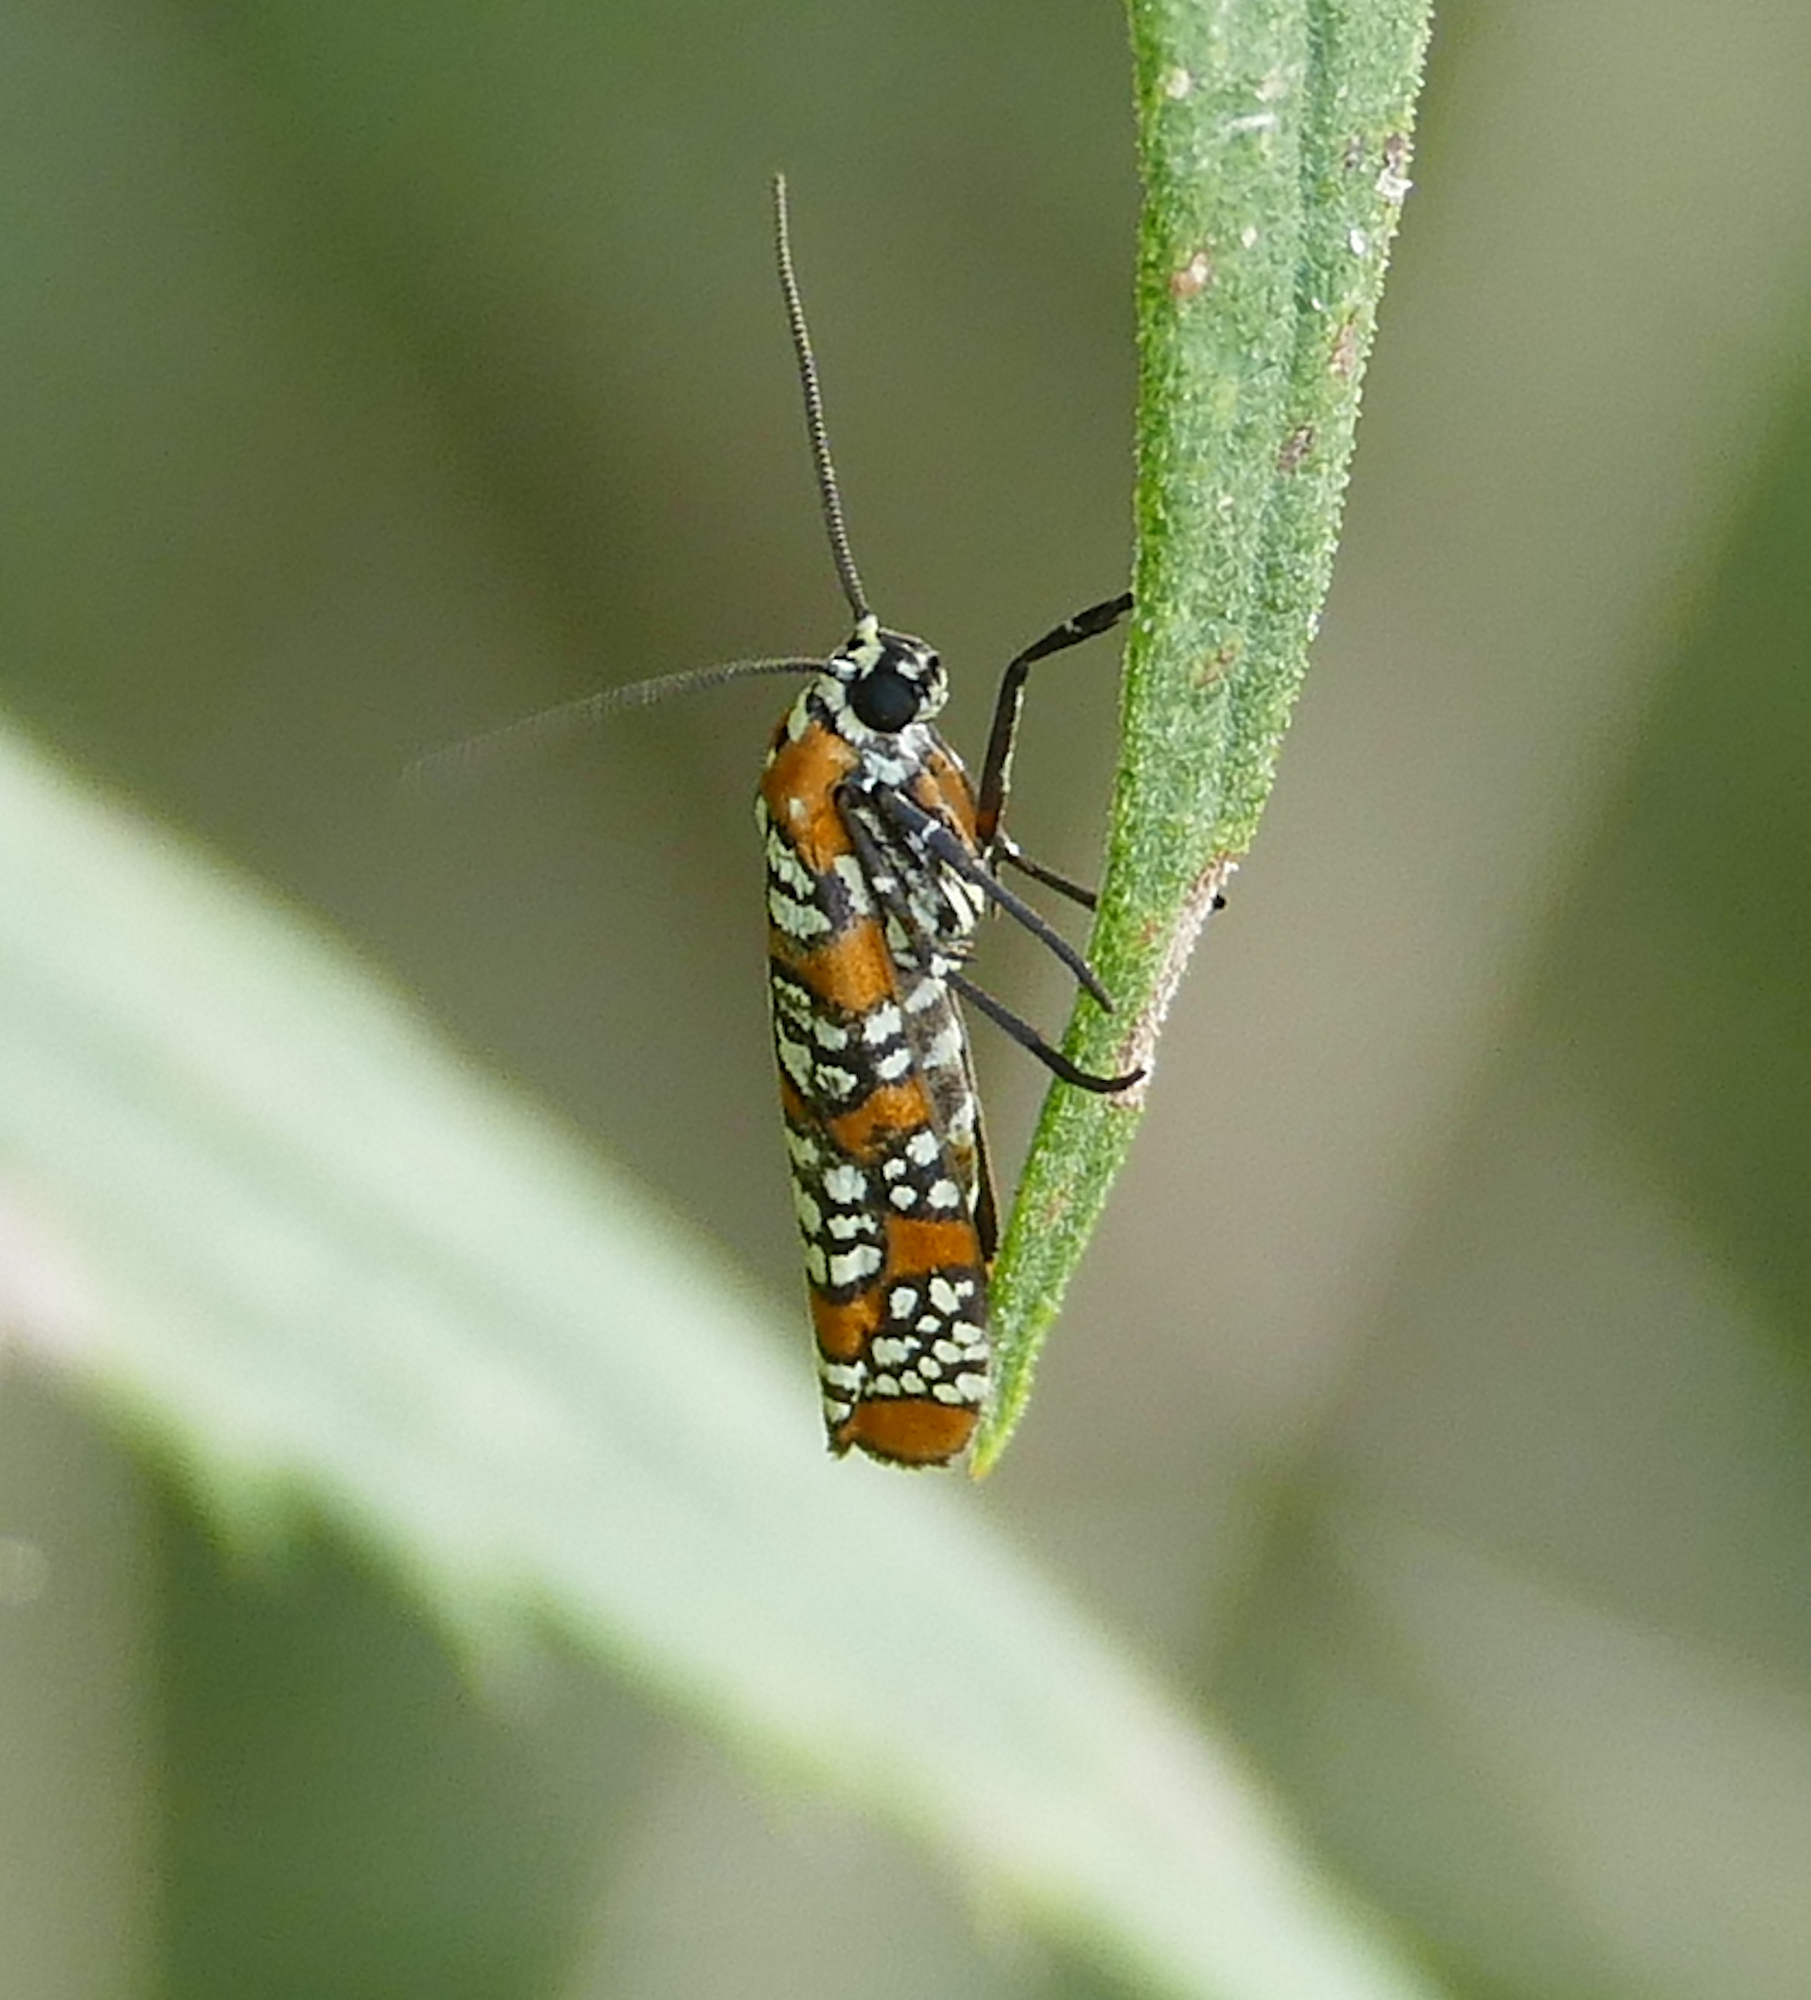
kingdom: Animalia
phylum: Arthropoda
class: Insecta
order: Lepidoptera
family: Attevidae
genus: Atteva
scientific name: Atteva punctella
